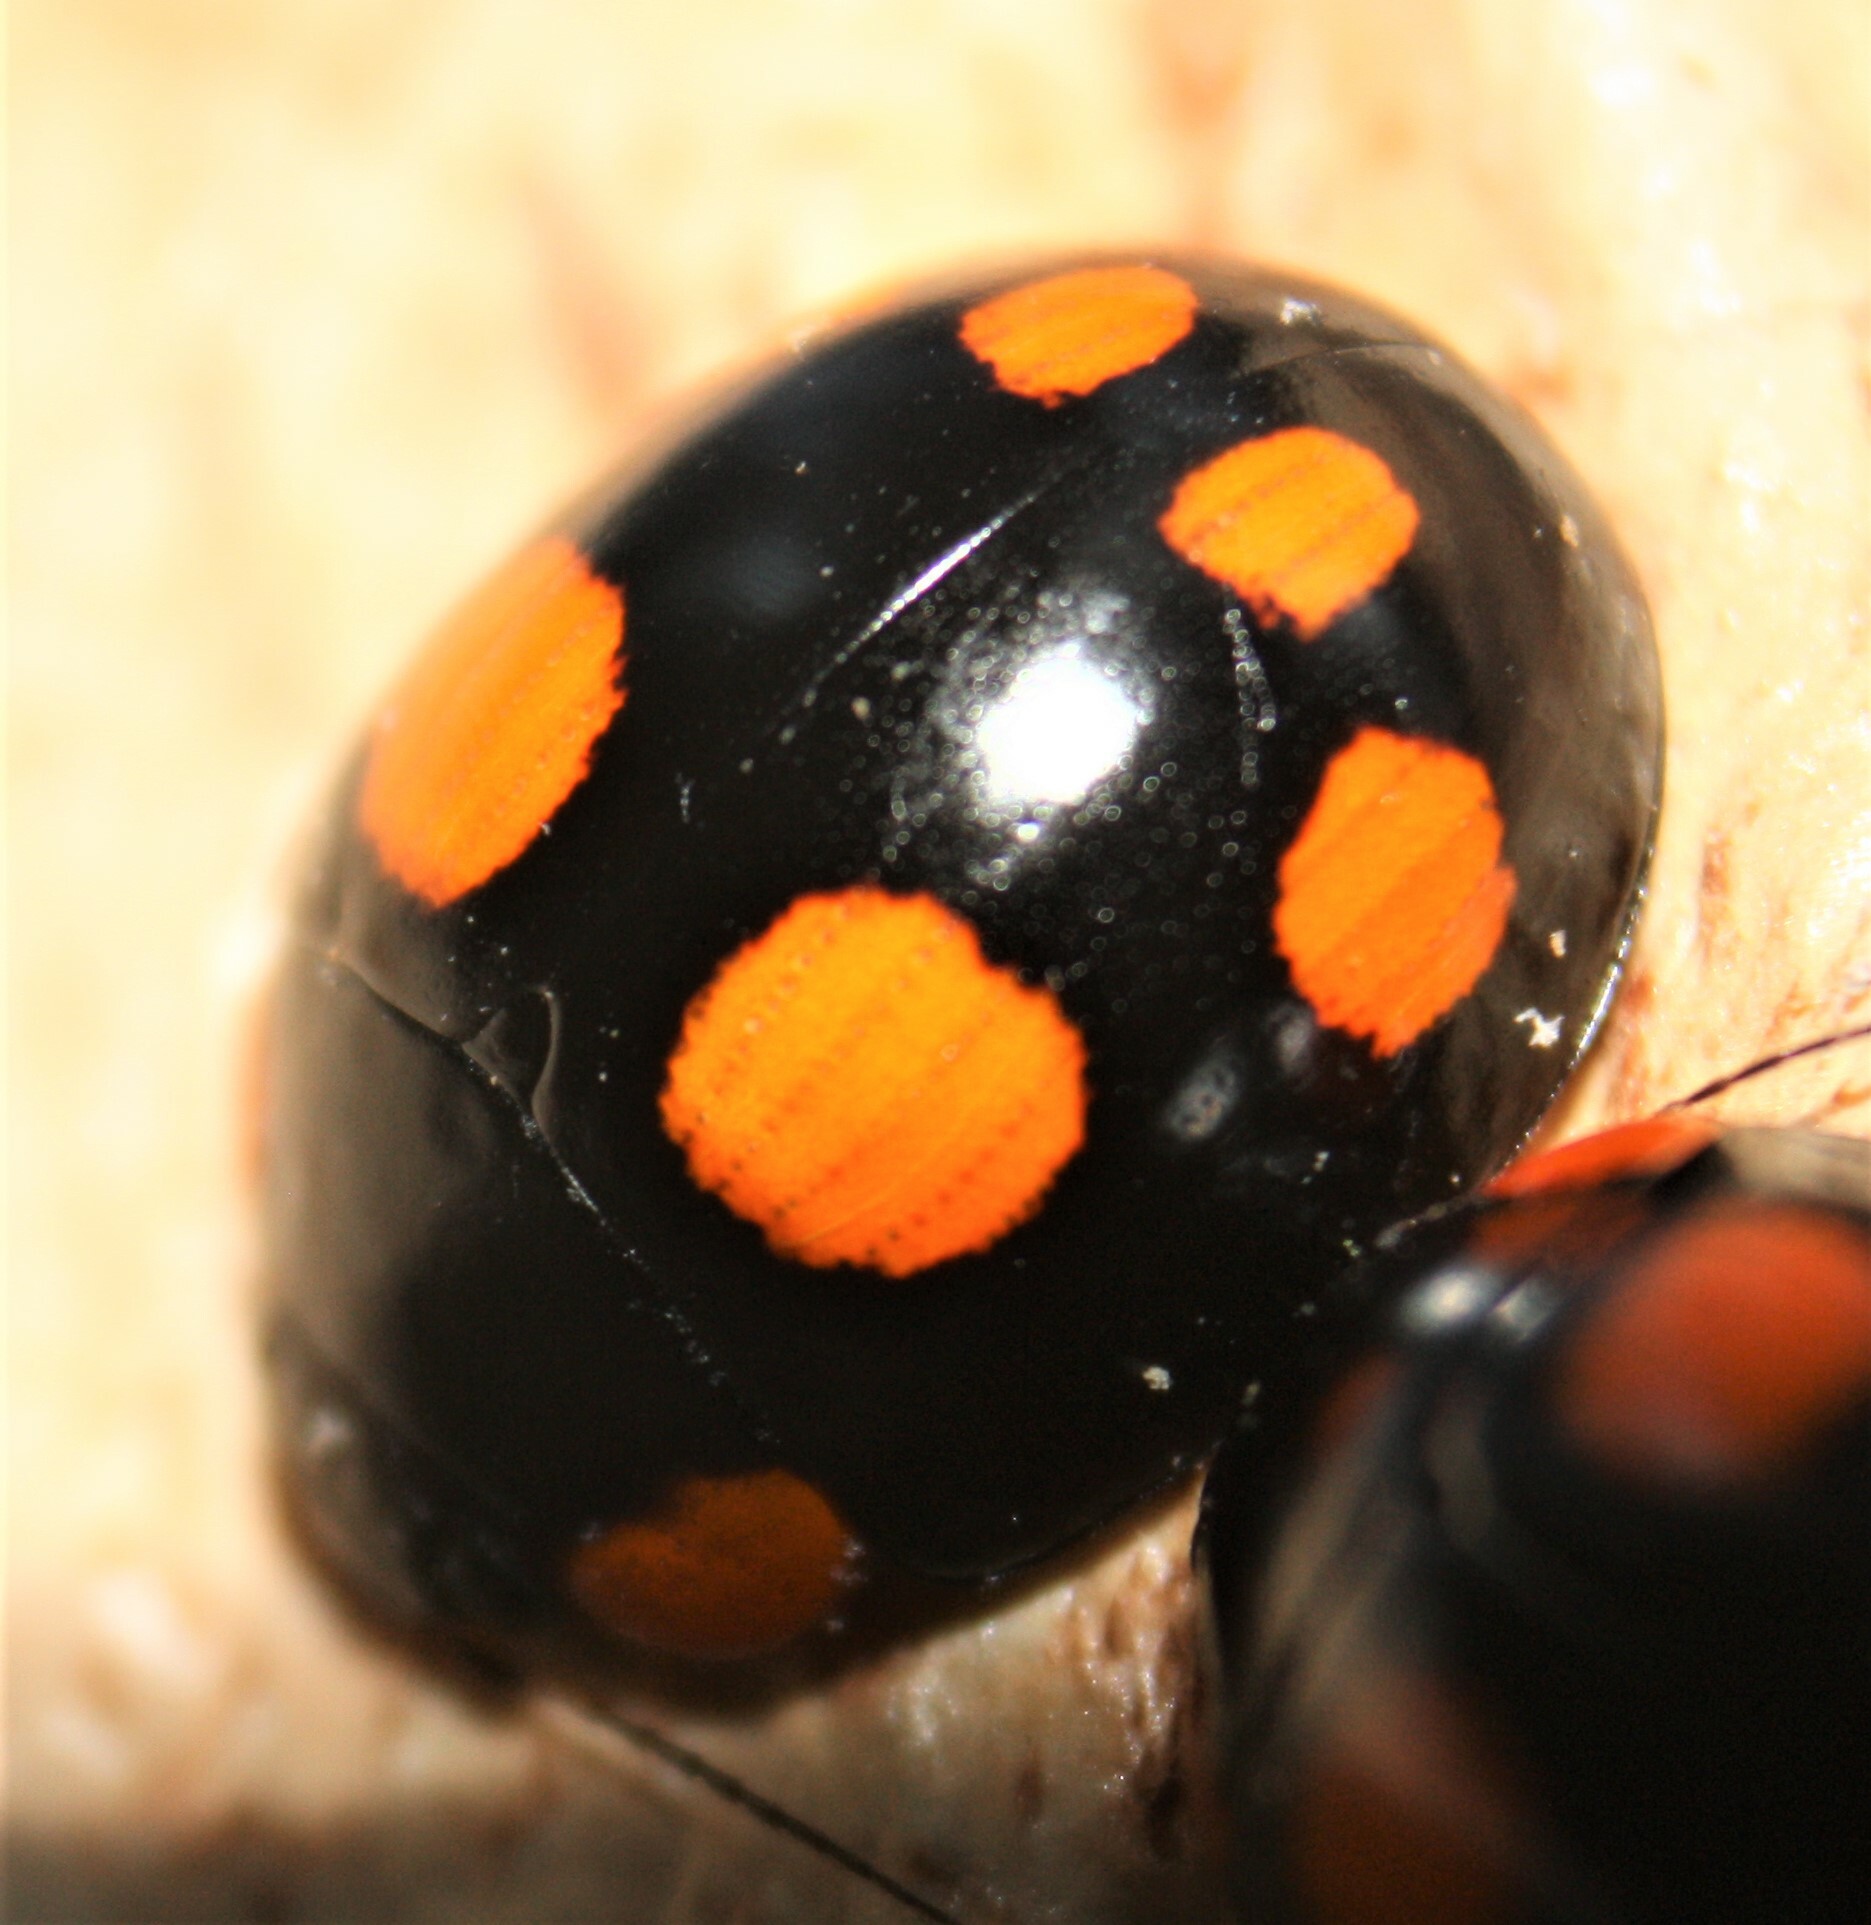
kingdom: Animalia
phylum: Arthropoda
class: Insecta
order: Coleoptera
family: Chrysomelidae
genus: Paropsisterna
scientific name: Paropsisterna
